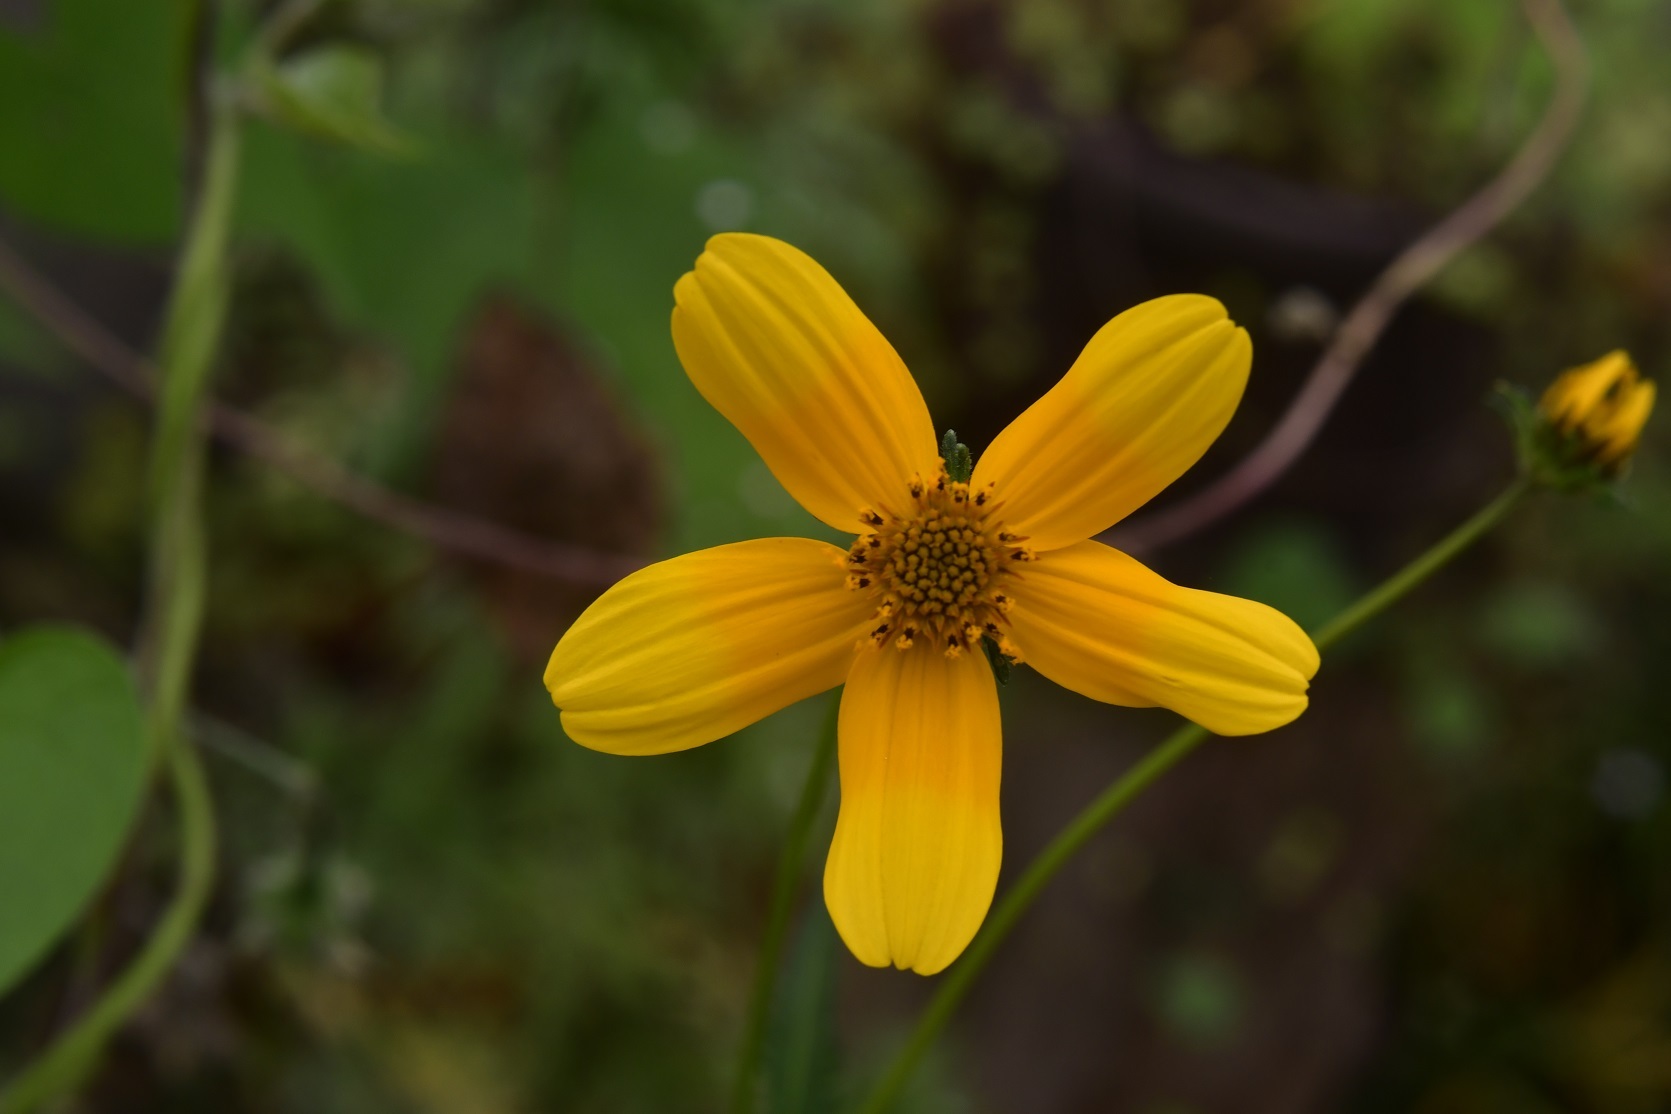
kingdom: Plantae
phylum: Tracheophyta
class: Magnoliopsida
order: Asterales
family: Asteraceae
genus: Bidens
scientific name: Bidens aurea
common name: Arizona beggar-ticks
